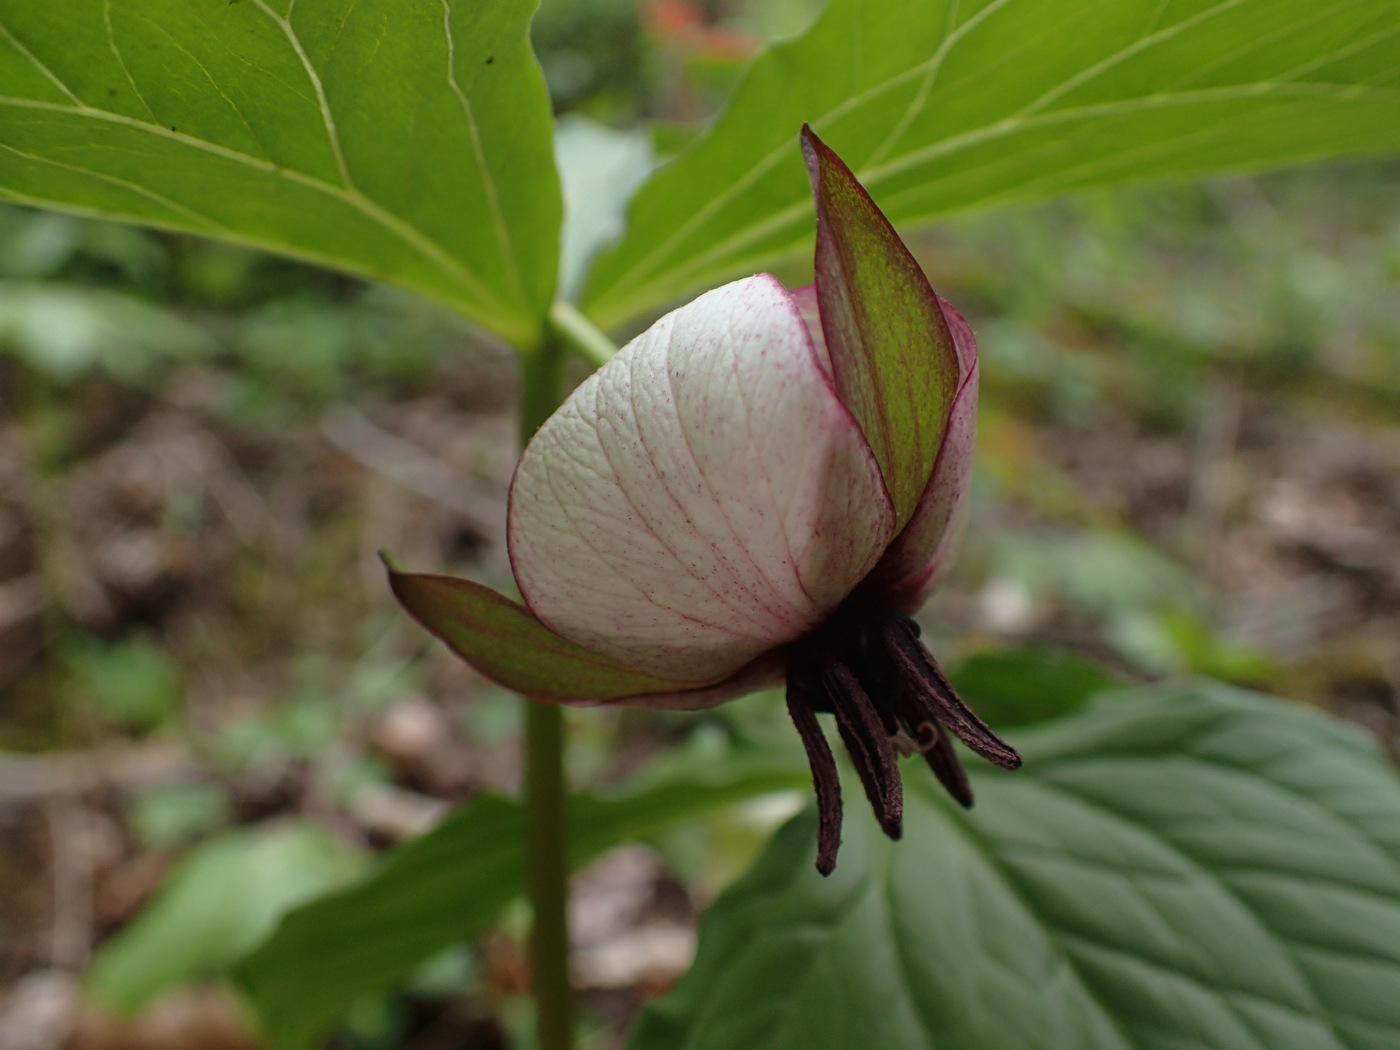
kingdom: Plantae
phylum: Tracheophyta
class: Liliopsida
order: Liliales
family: Melanthiaceae
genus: Trillium
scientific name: Trillium rugelii
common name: Ill-scented trillium
